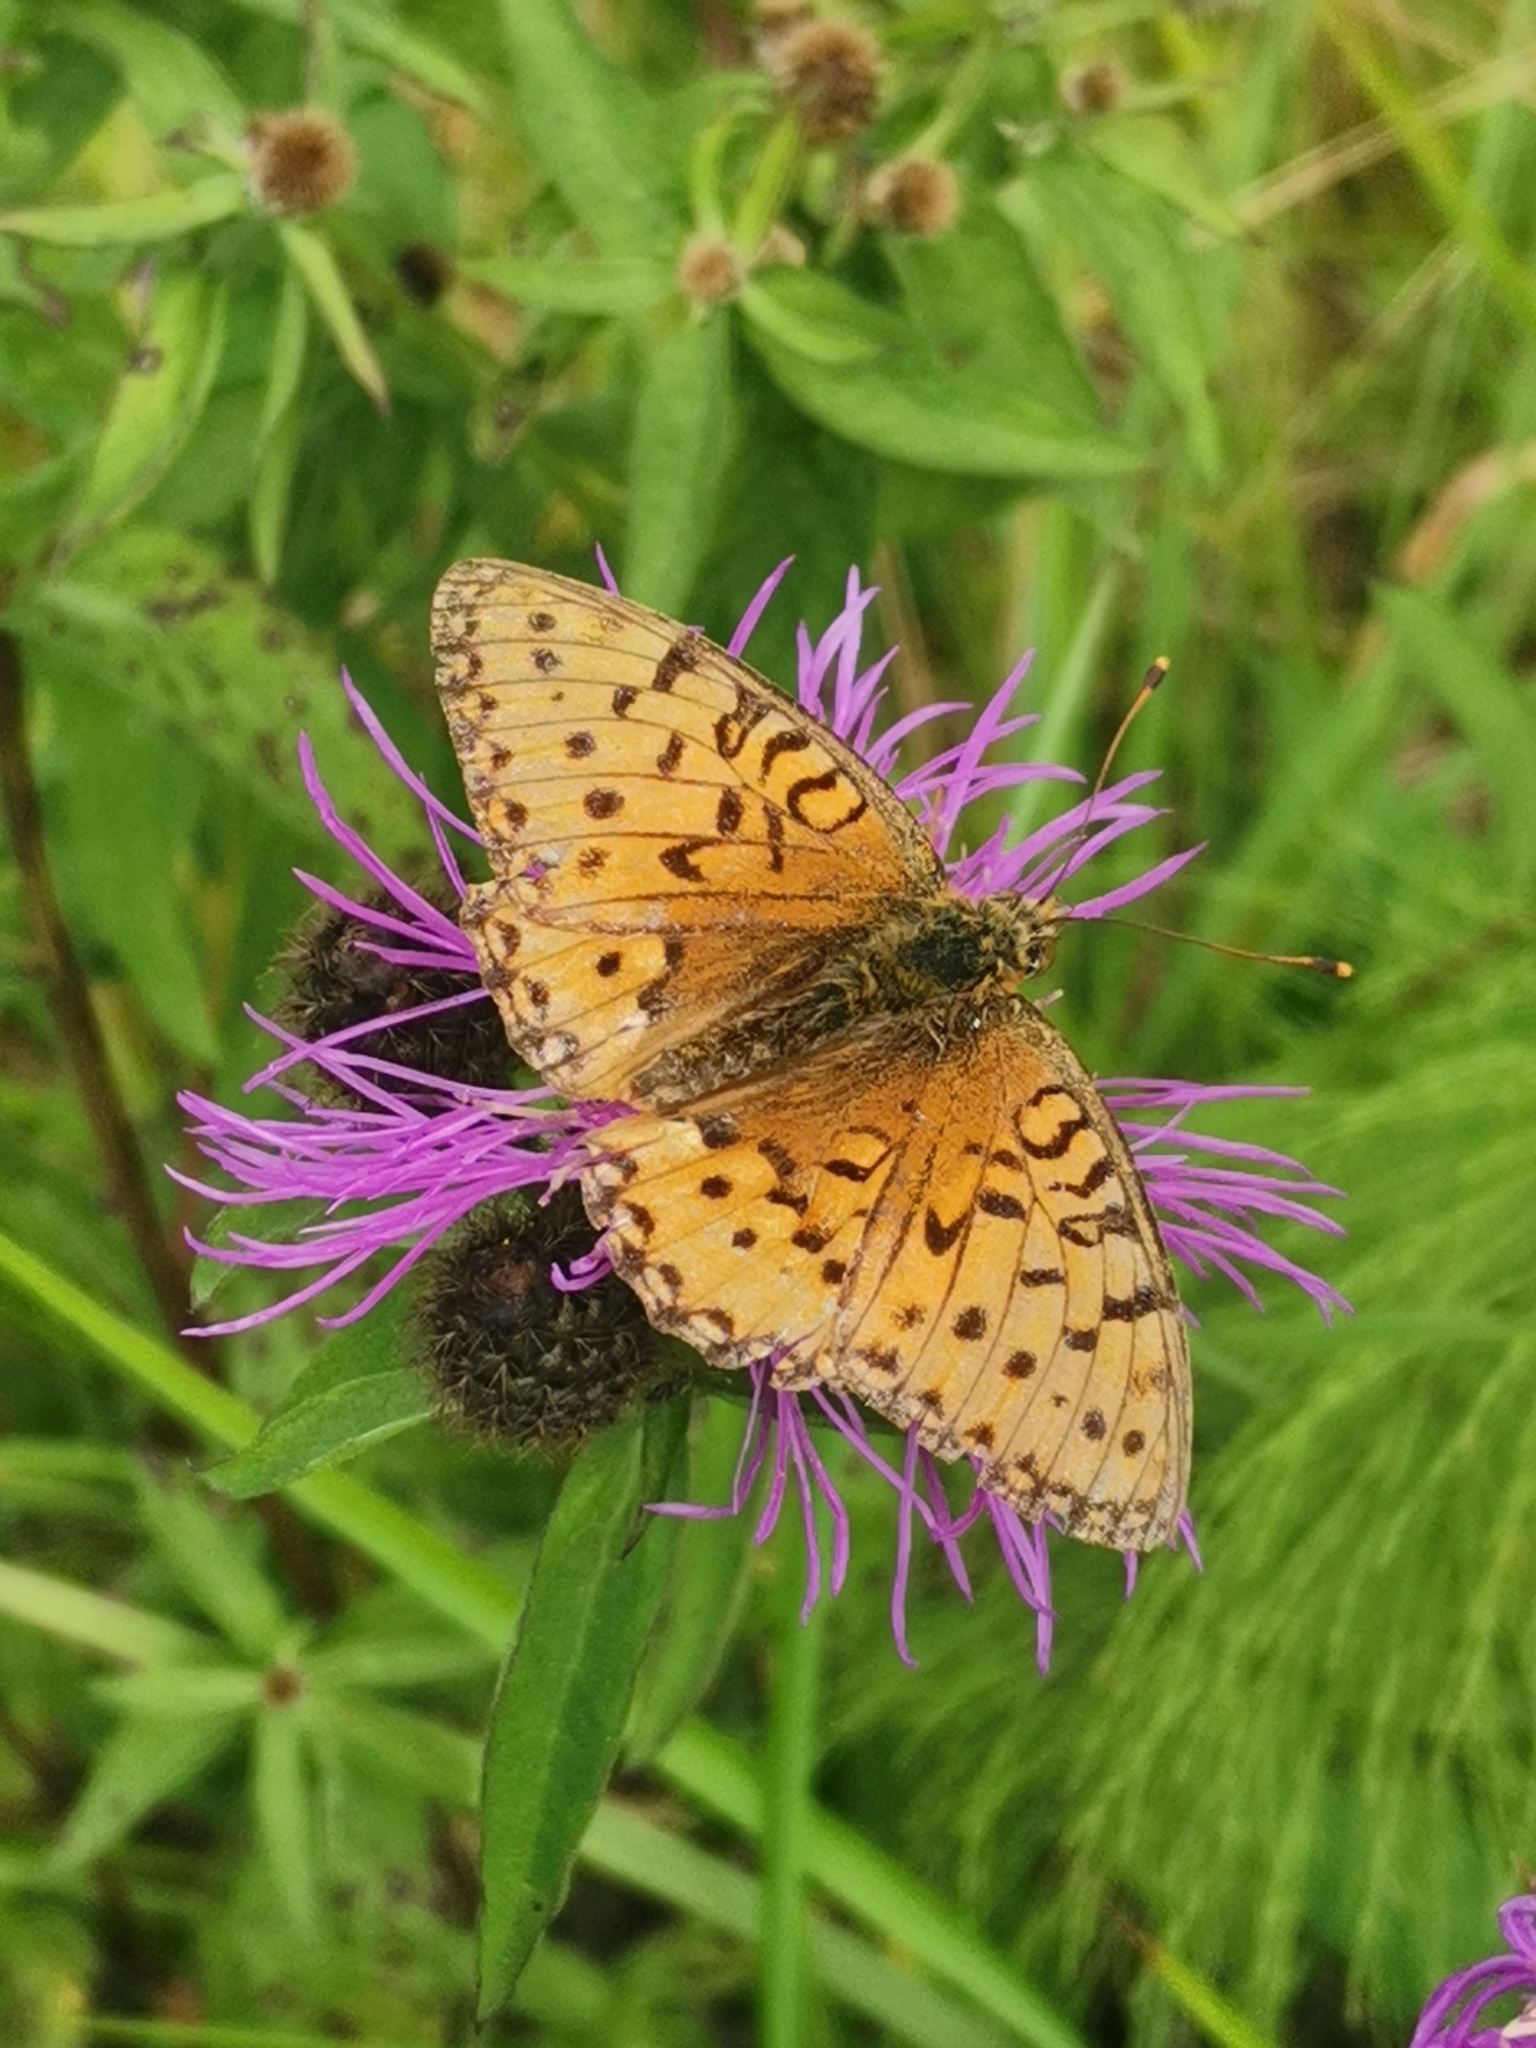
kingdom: Animalia
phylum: Arthropoda
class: Insecta
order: Lepidoptera
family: Nymphalidae
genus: Speyeria
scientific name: Speyeria aglaja
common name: Dark green fritillary
